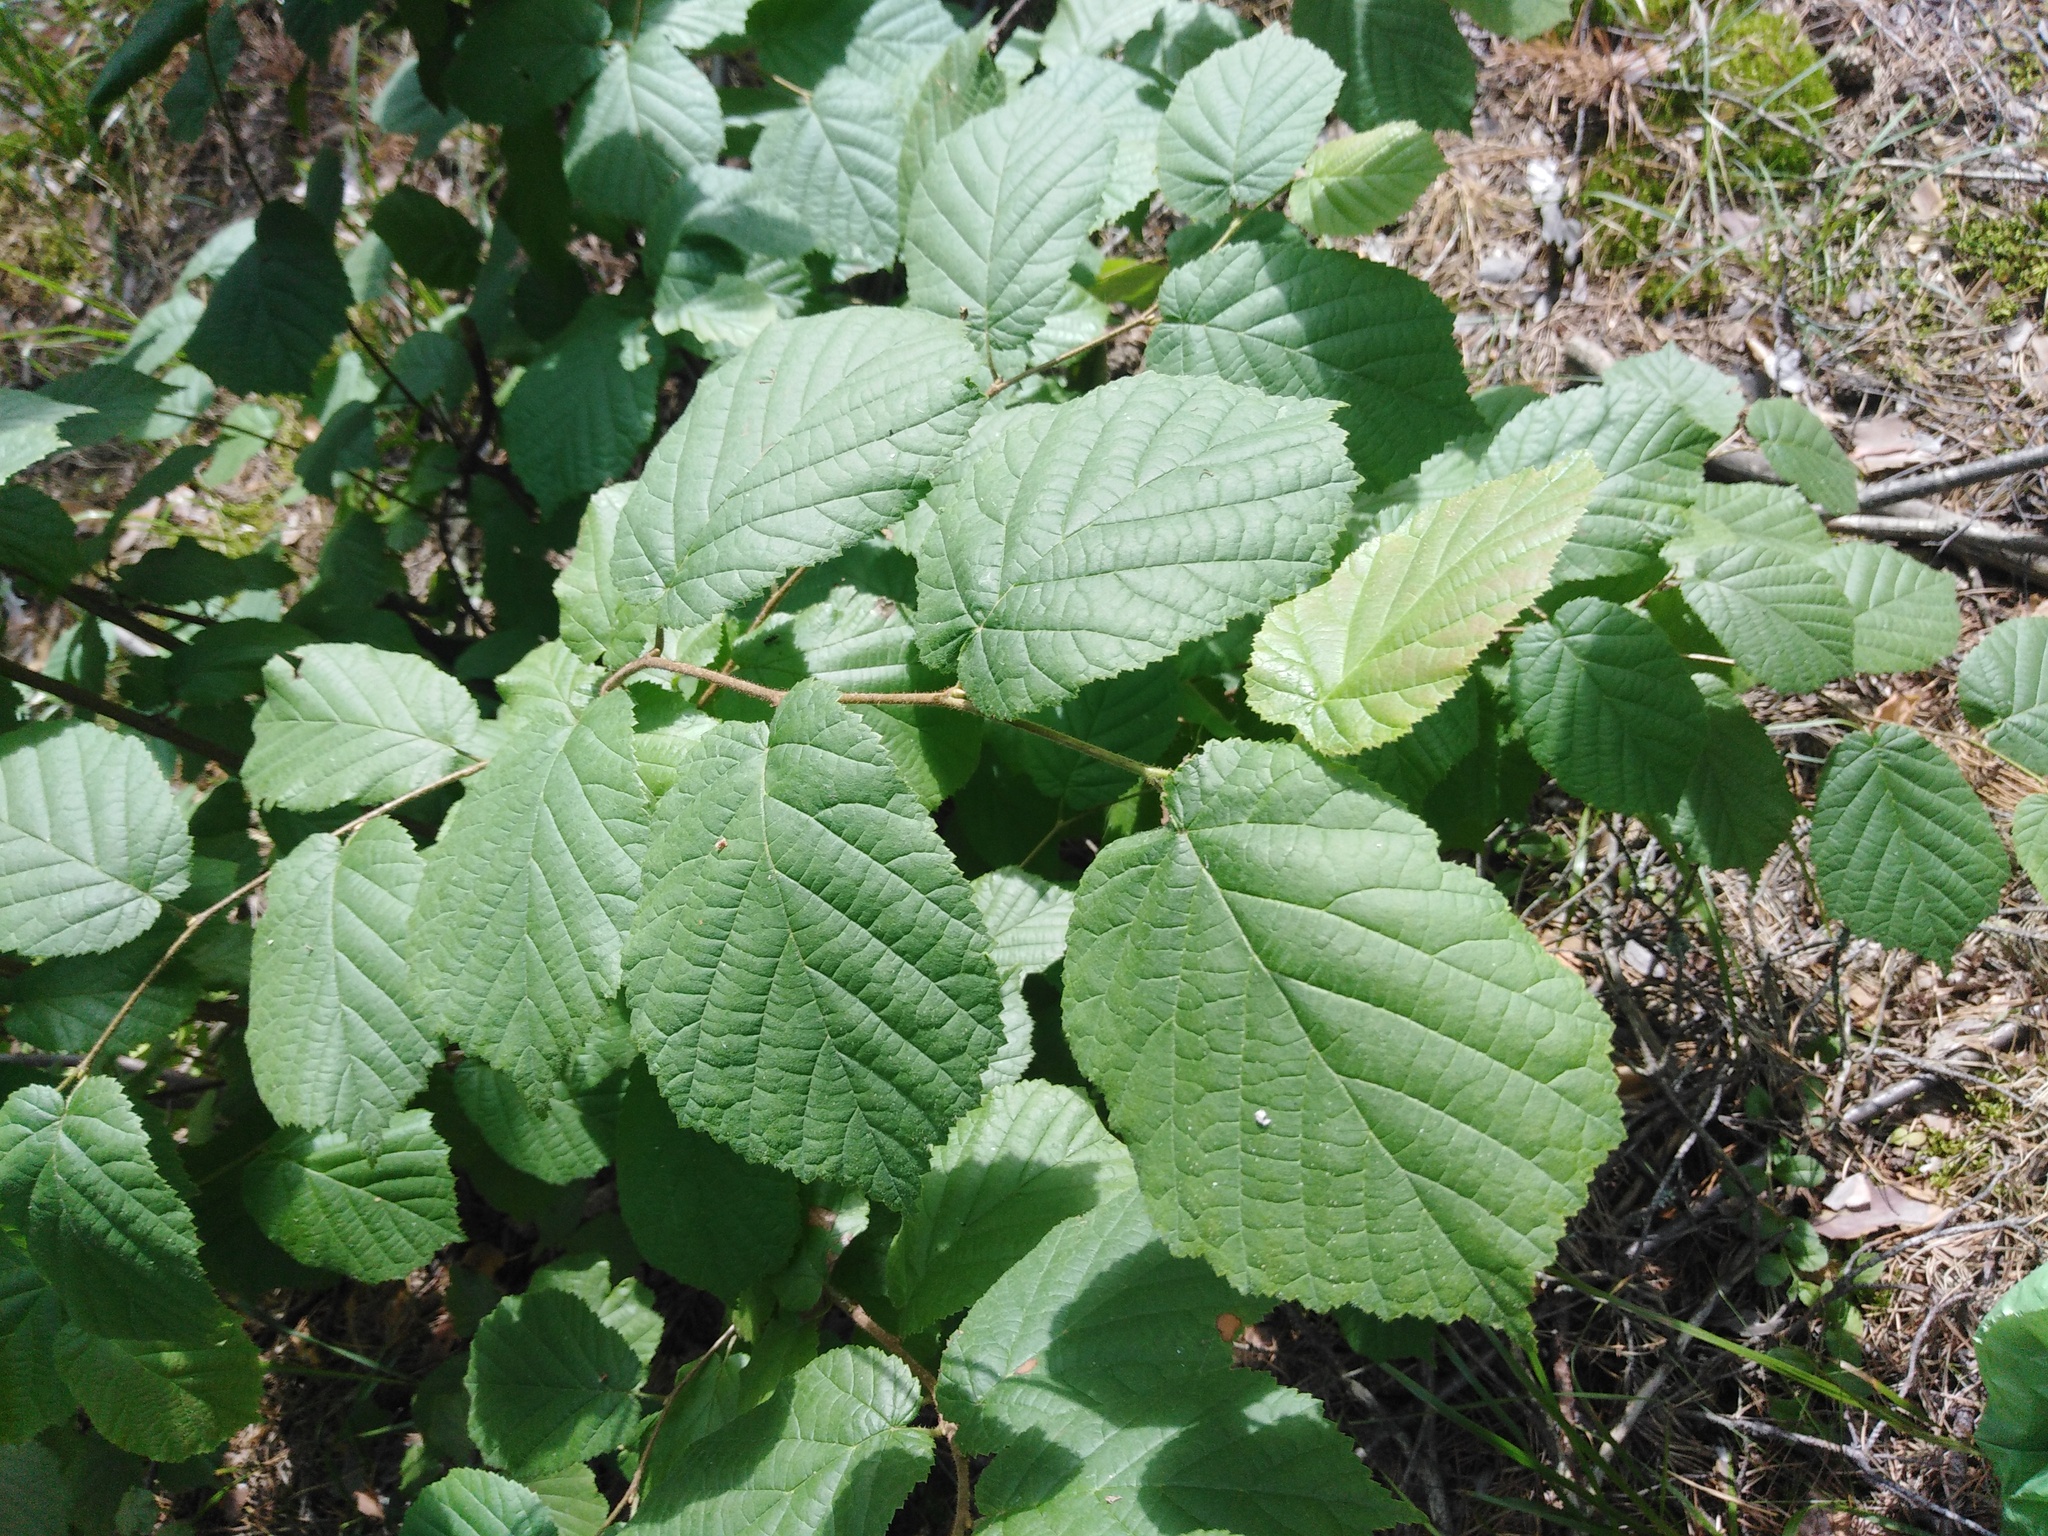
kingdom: Plantae
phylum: Tracheophyta
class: Magnoliopsida
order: Fagales
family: Betulaceae
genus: Corylus
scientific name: Corylus avellana
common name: European hazel
